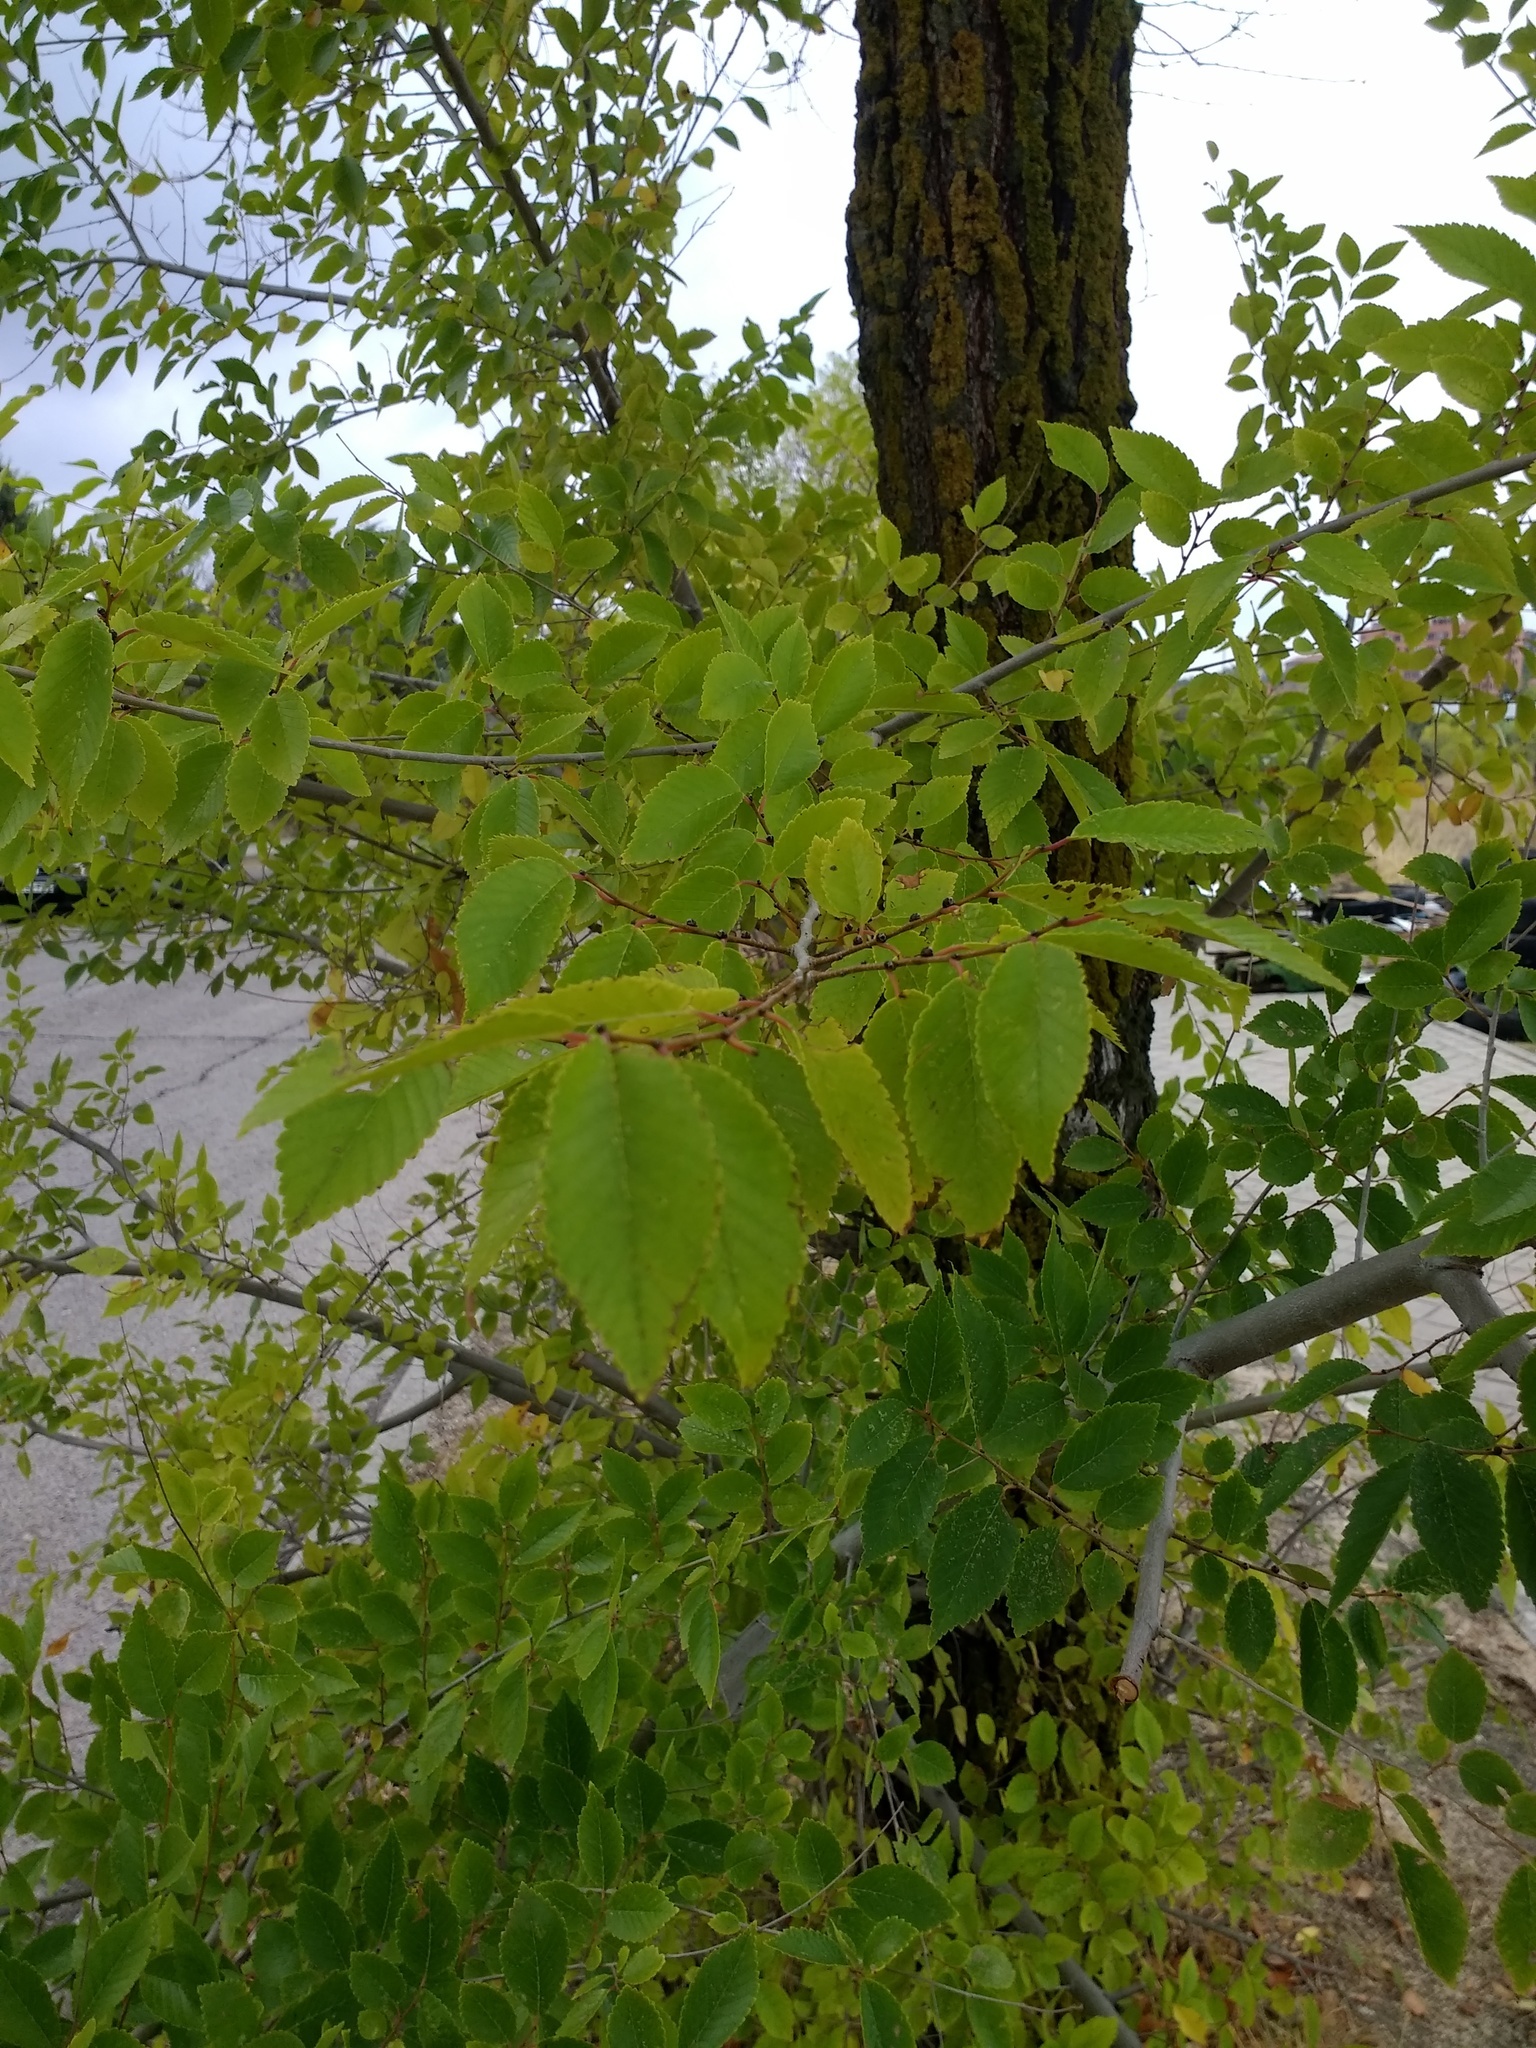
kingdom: Plantae
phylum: Tracheophyta
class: Magnoliopsida
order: Rosales
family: Ulmaceae
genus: Ulmus
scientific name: Ulmus pumila
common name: Siberian elm
